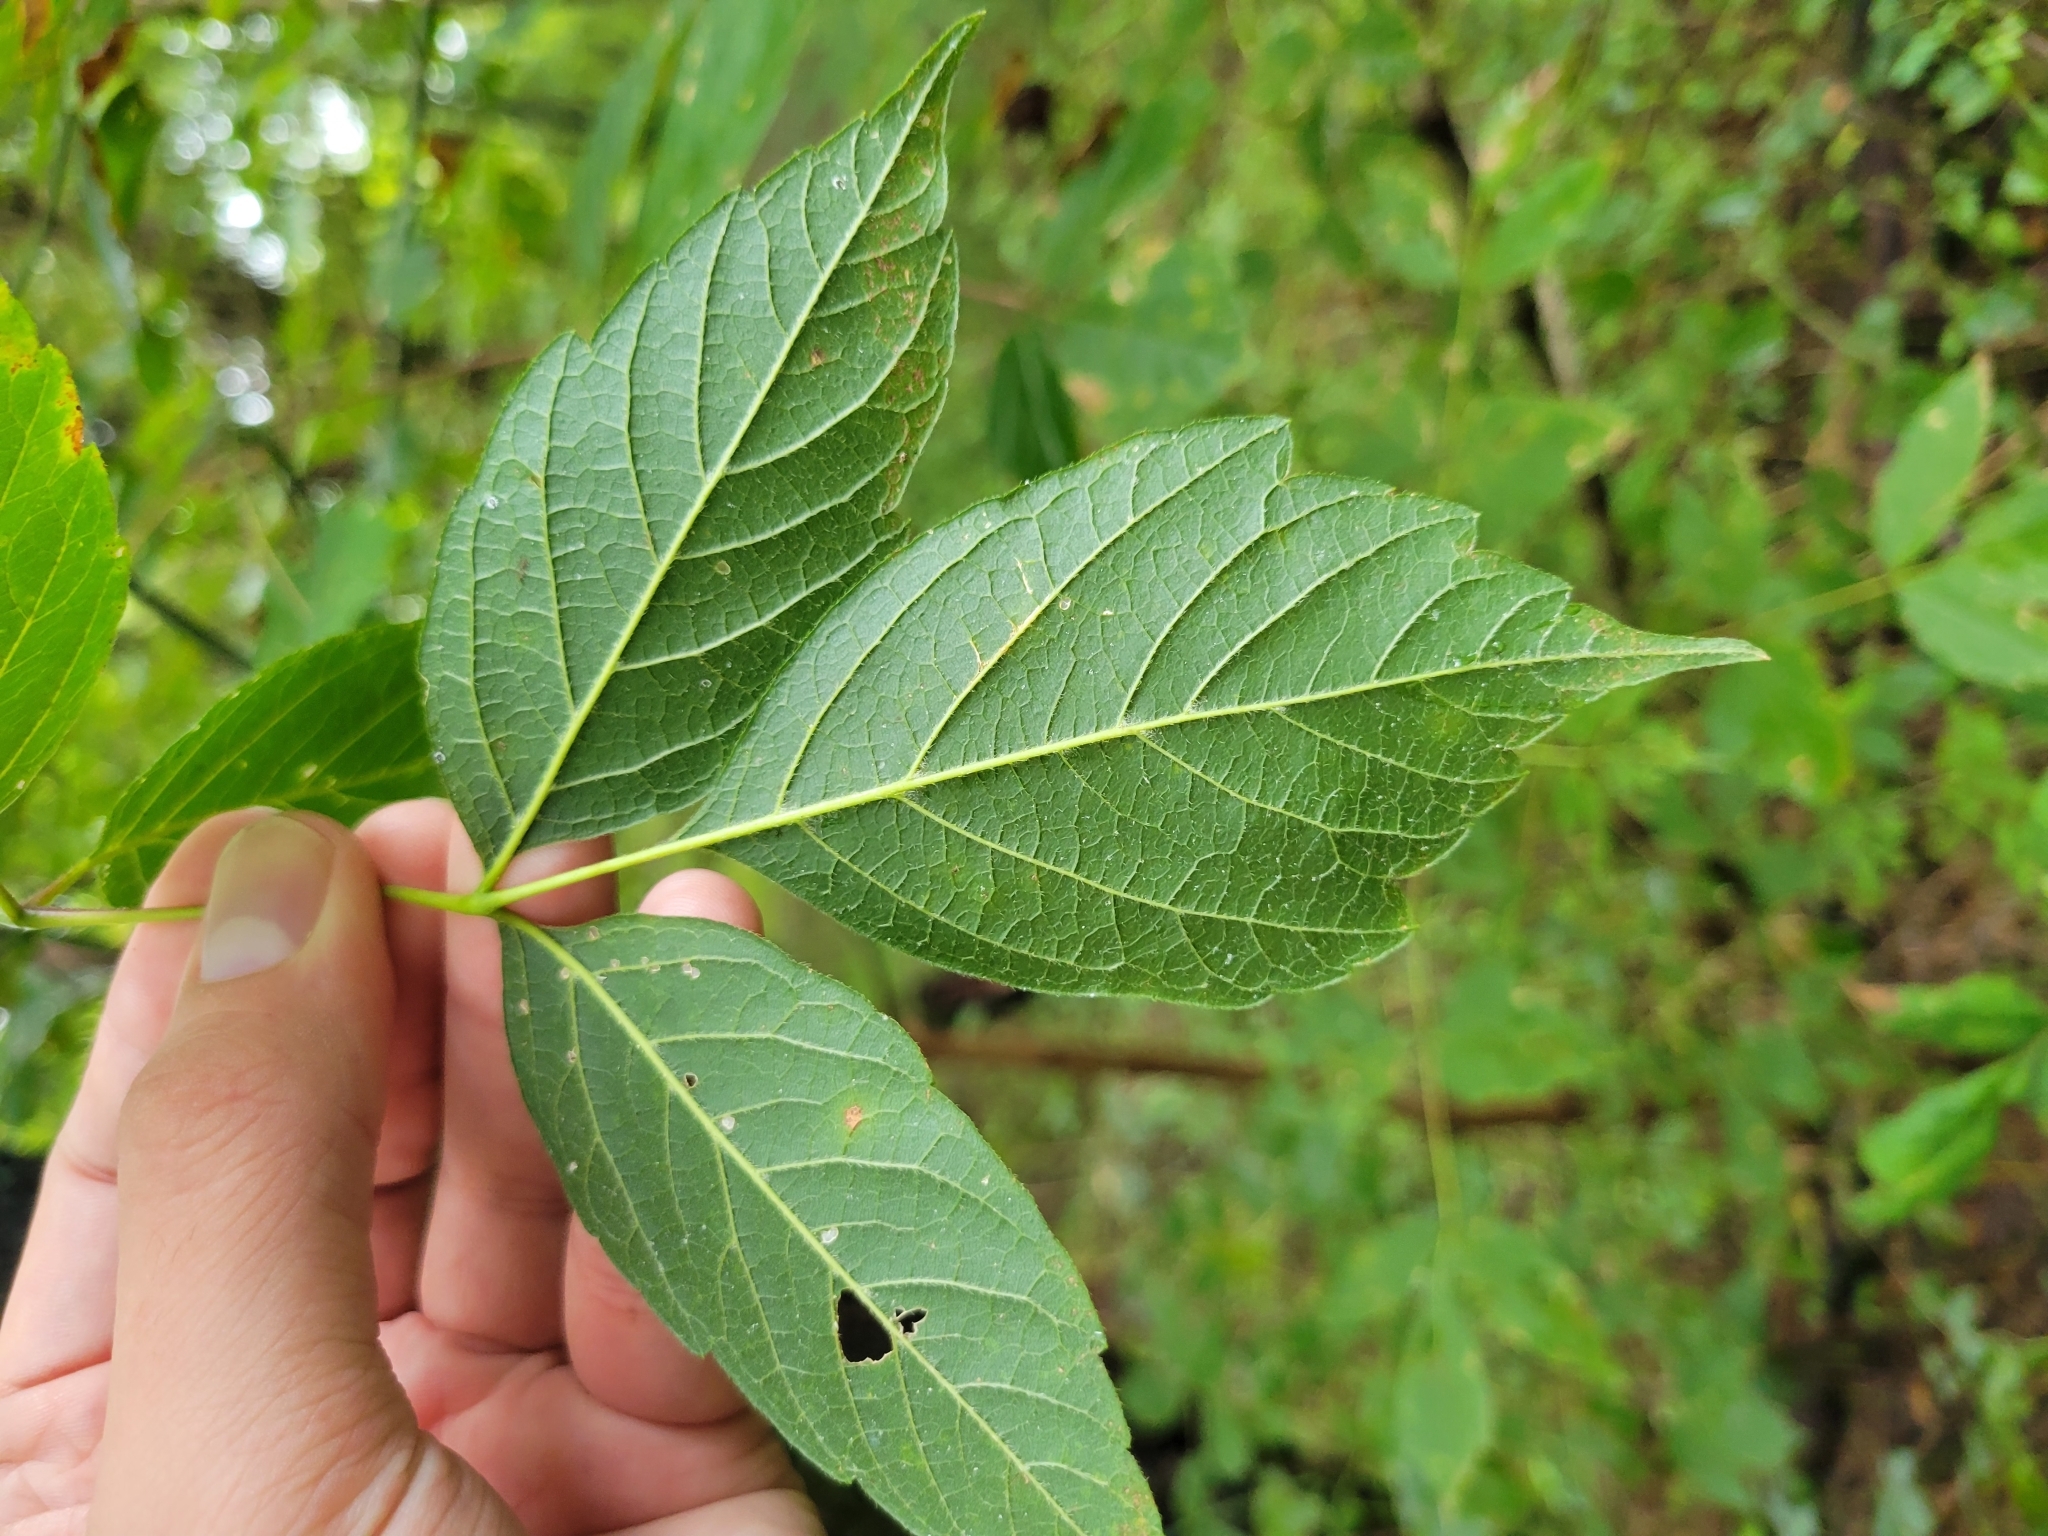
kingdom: Plantae
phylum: Tracheophyta
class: Magnoliopsida
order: Sapindales
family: Sapindaceae
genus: Acer
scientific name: Acer negundo
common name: Ashleaf maple
